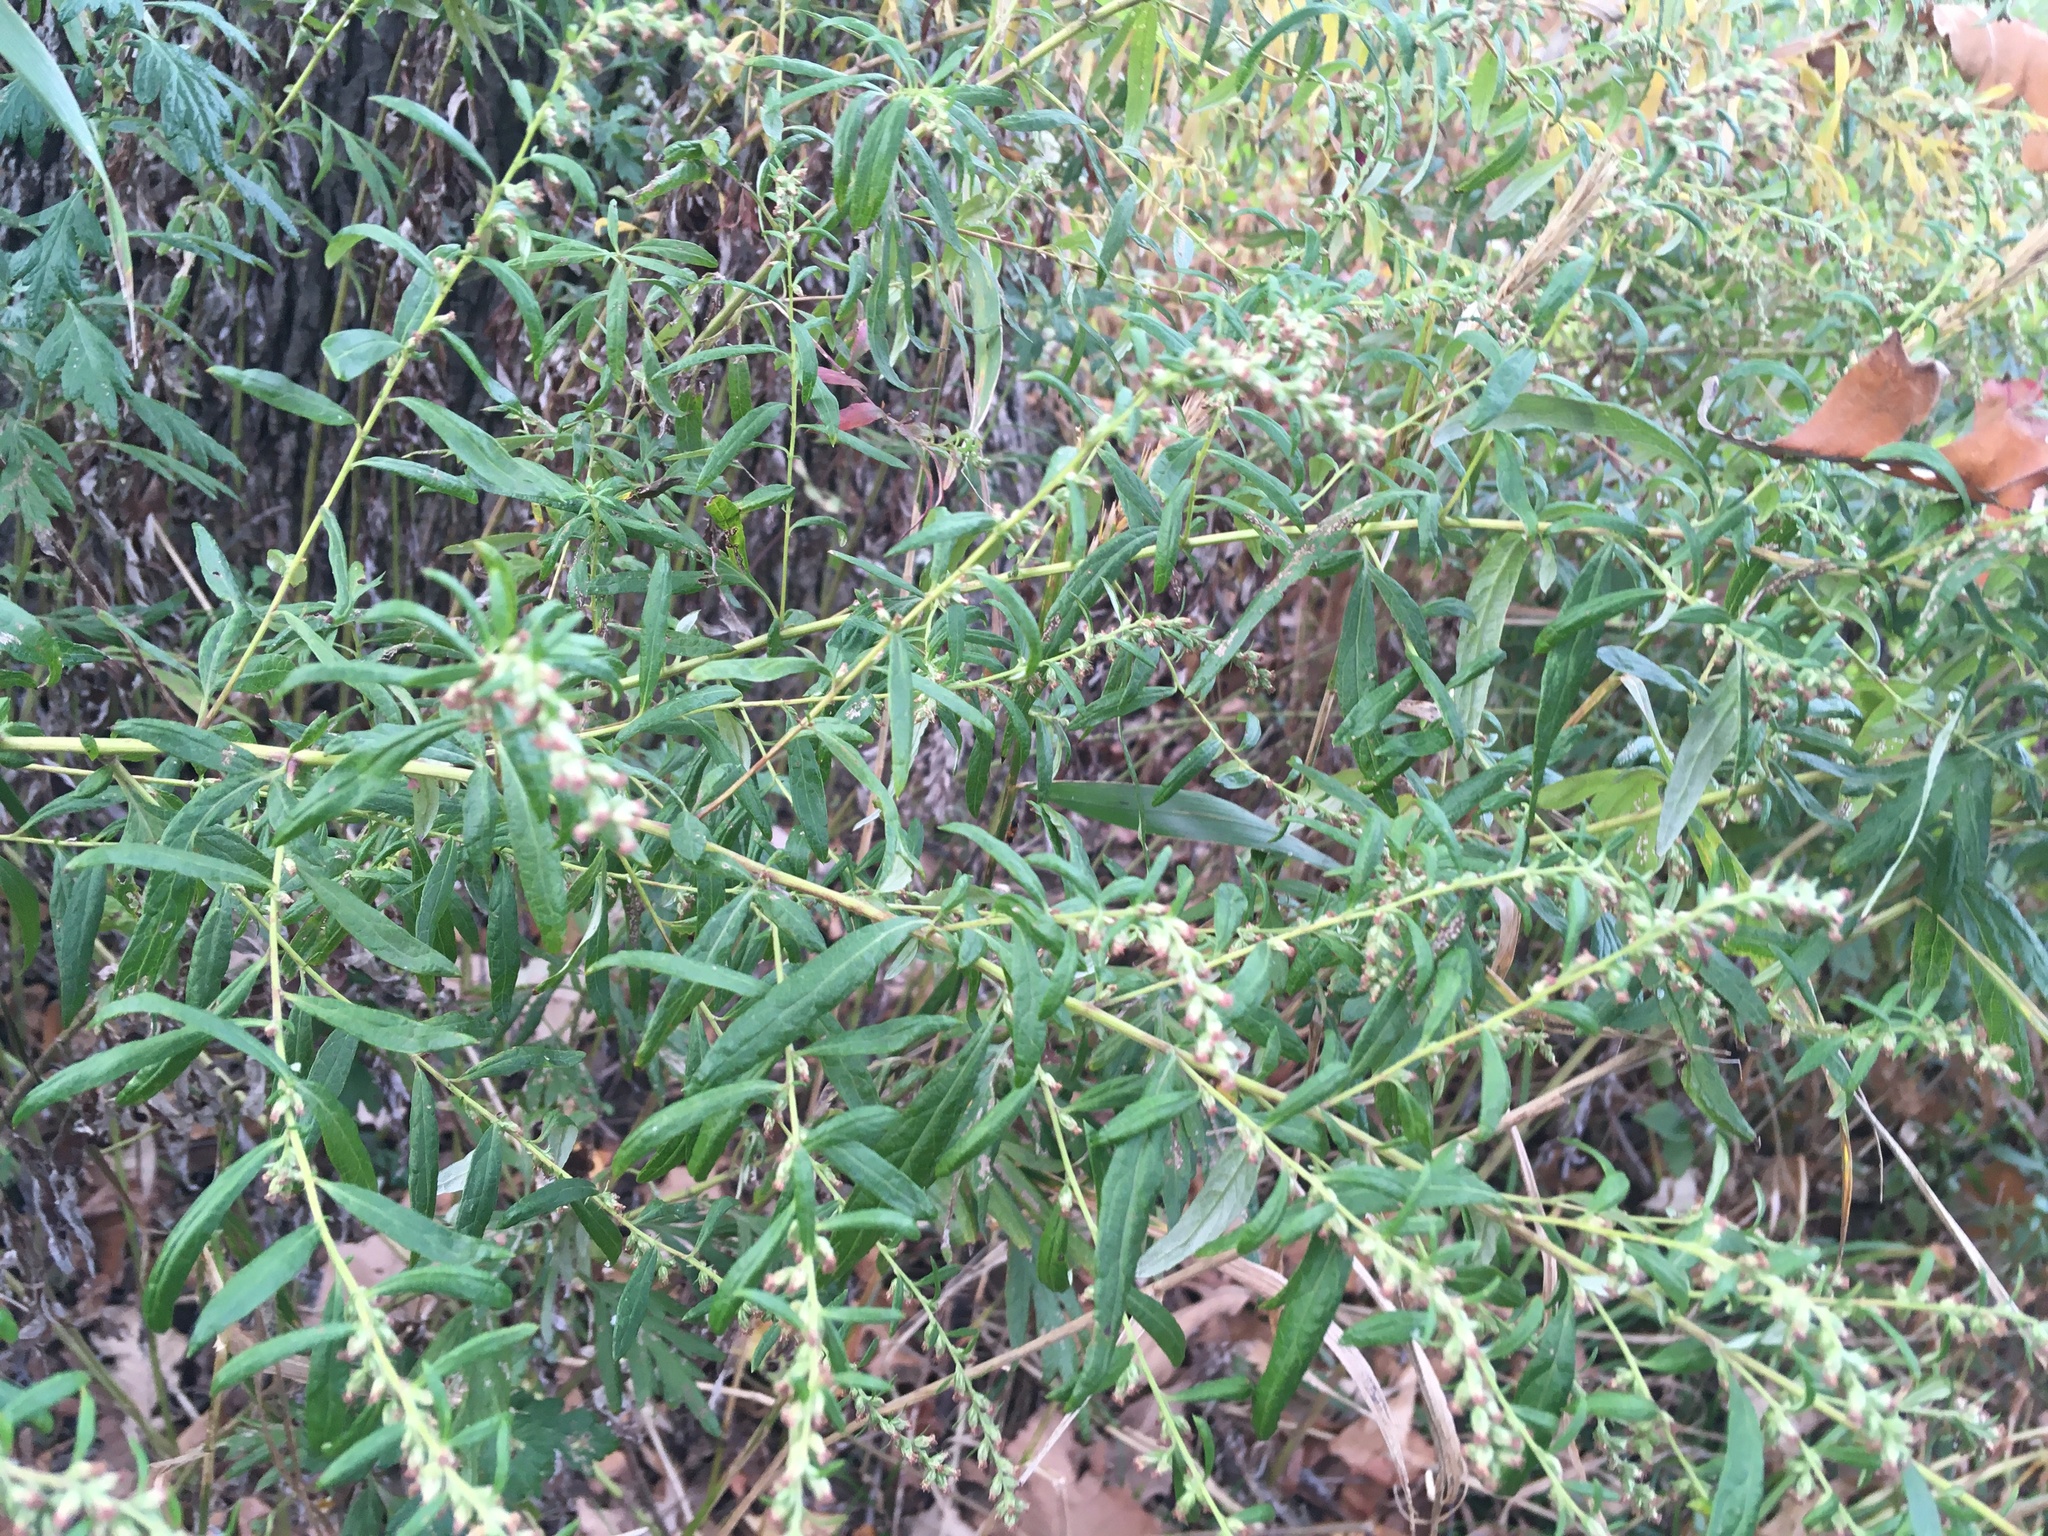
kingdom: Plantae
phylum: Tracheophyta
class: Magnoliopsida
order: Asterales
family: Asteraceae
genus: Artemisia
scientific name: Artemisia vulgaris
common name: Mugwort
